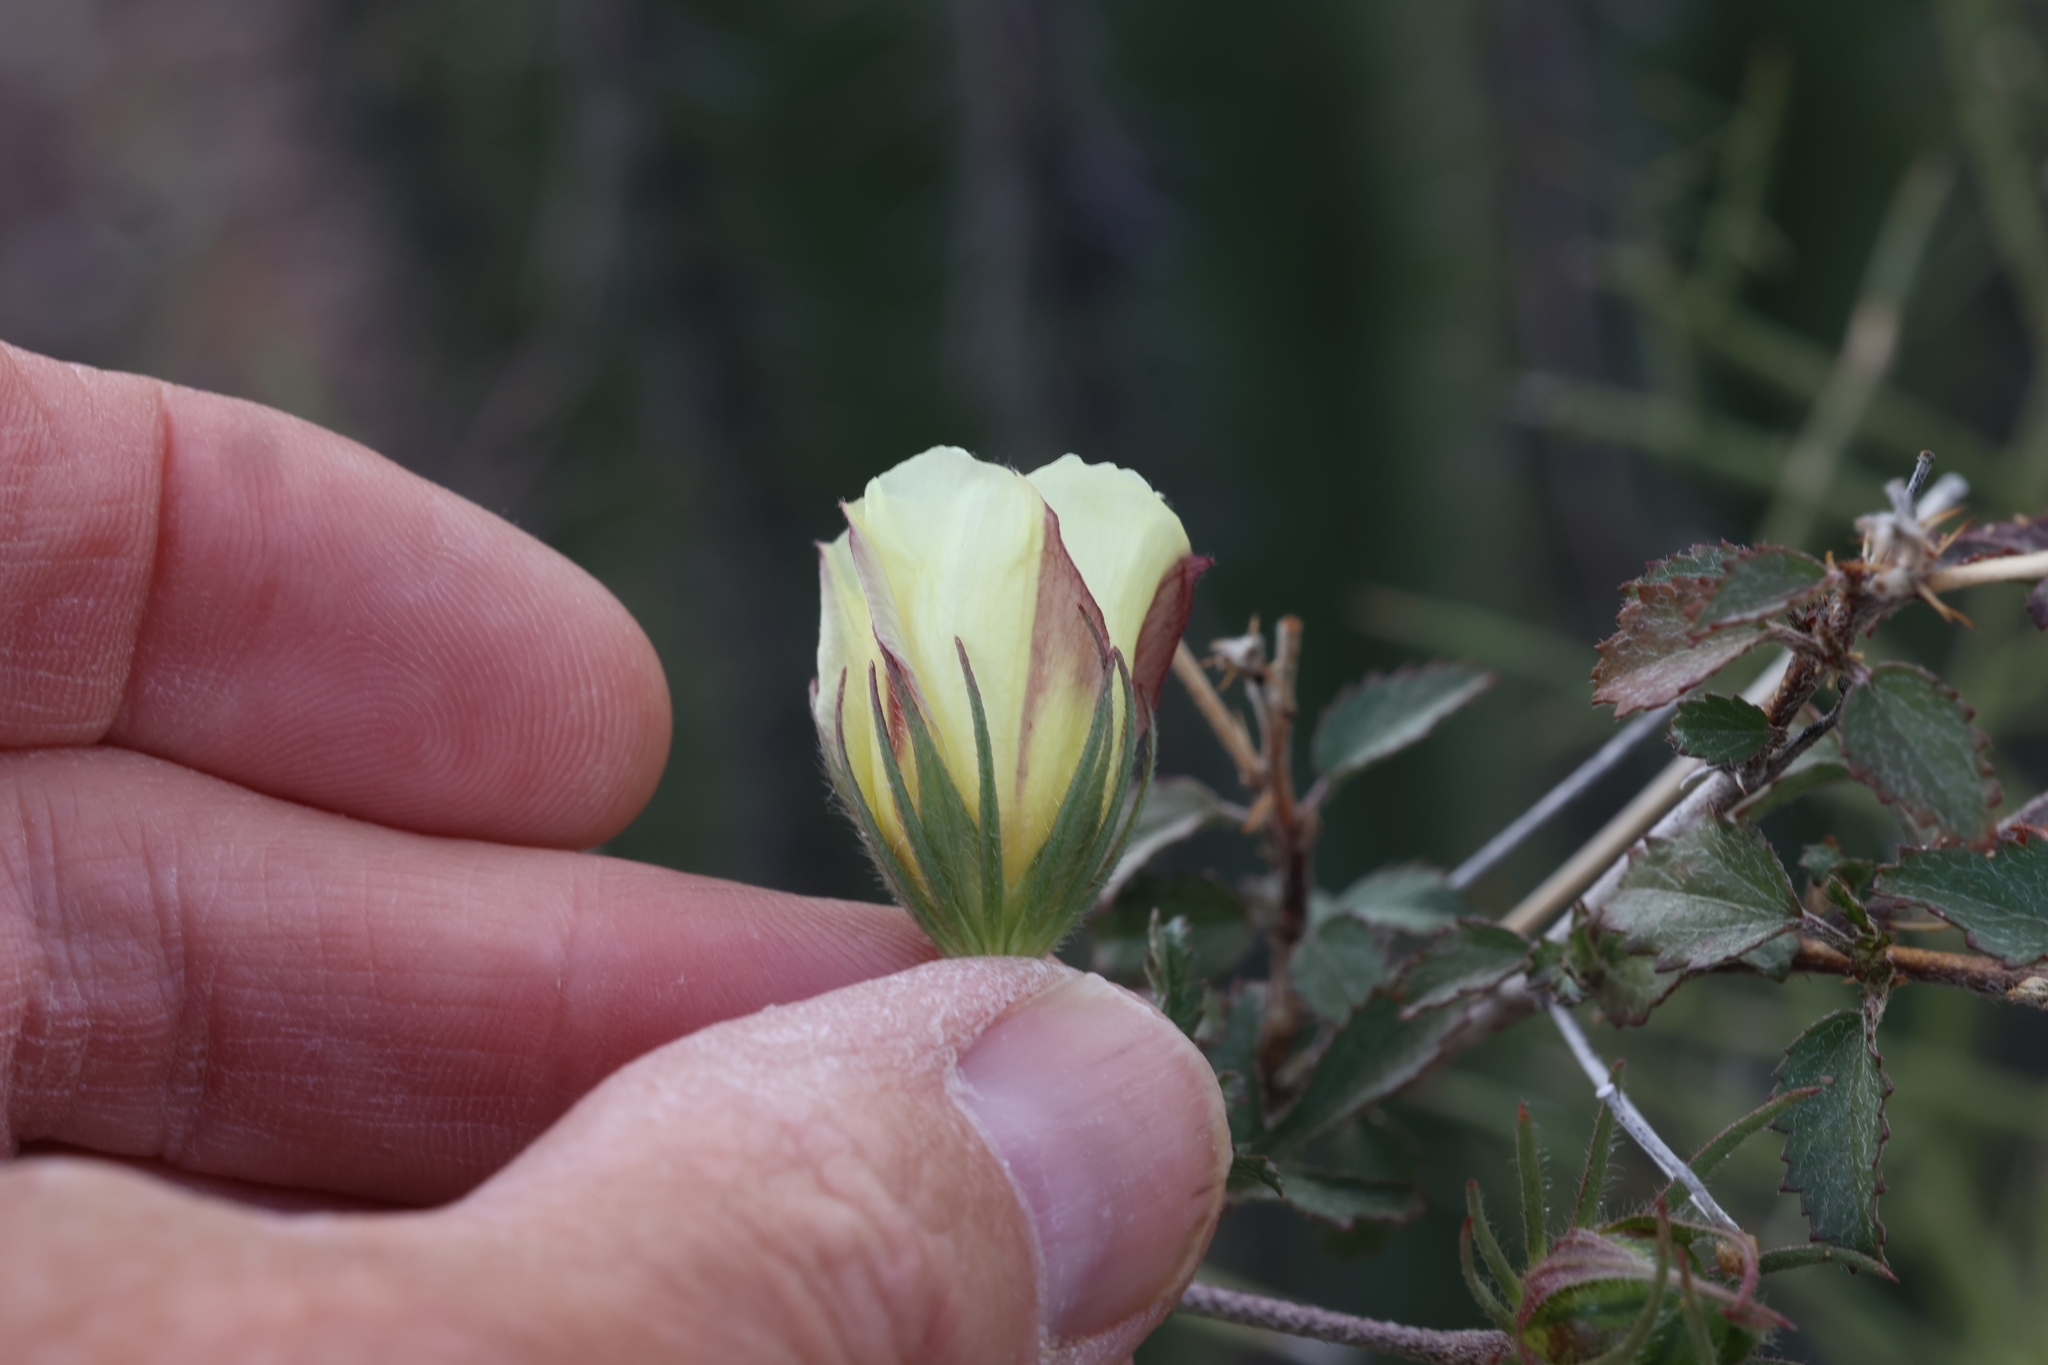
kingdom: Plantae
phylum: Tracheophyta
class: Magnoliopsida
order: Malvales
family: Malvaceae
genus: Hibiscus
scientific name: Hibiscus coulteri
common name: Desert rose-mallow
